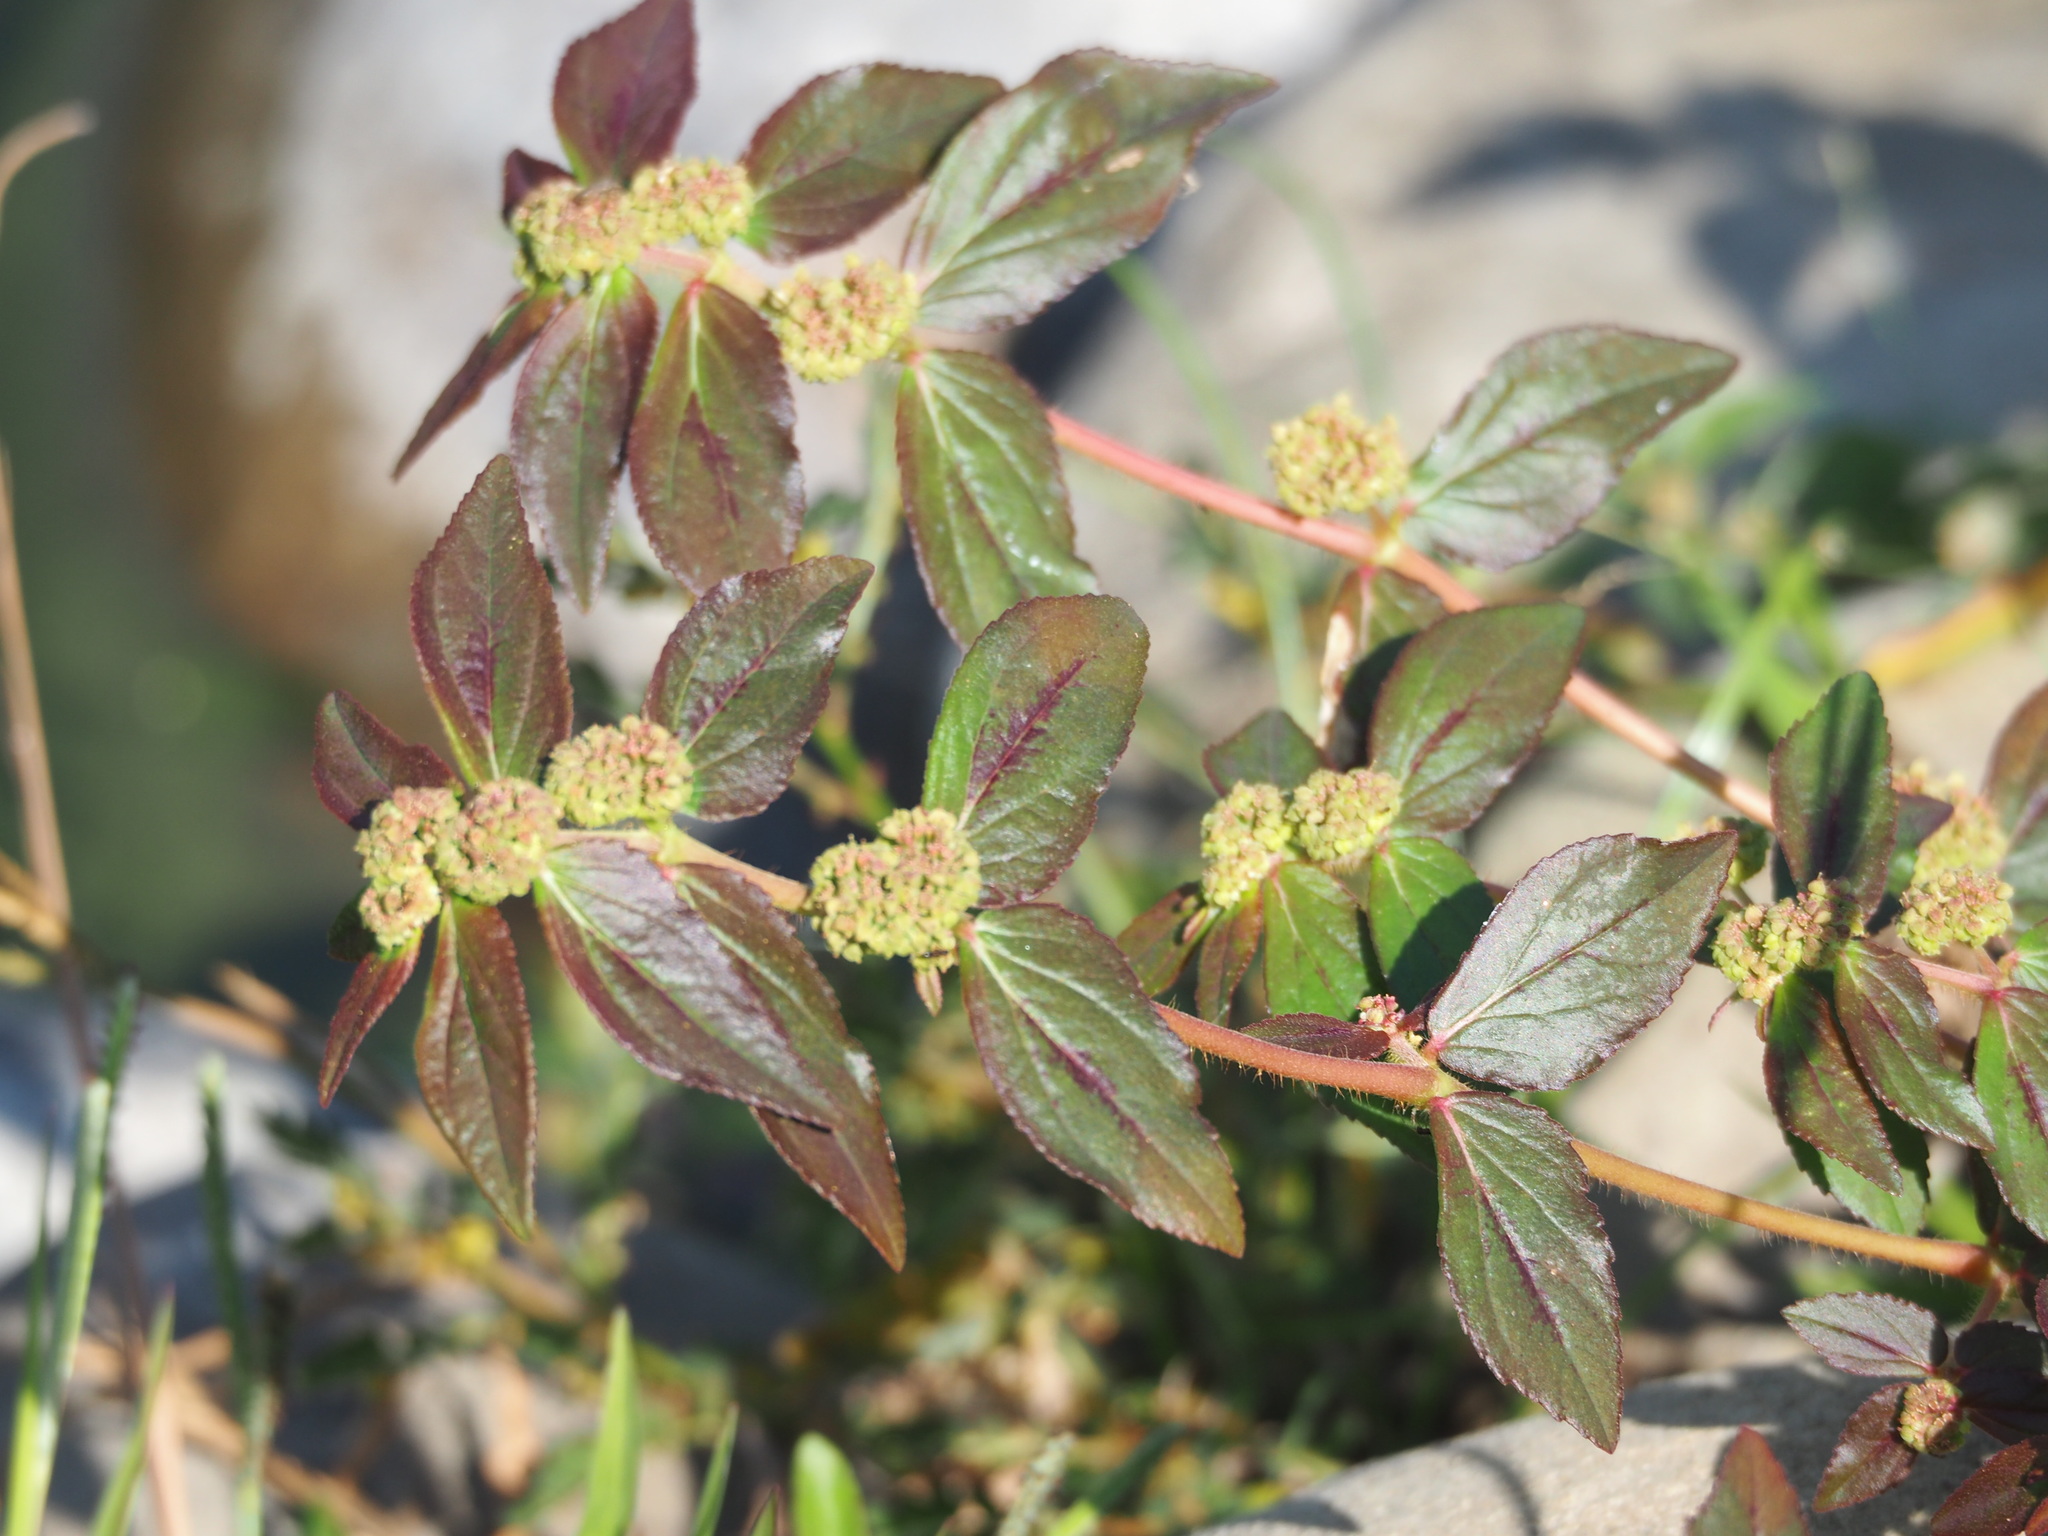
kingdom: Plantae
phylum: Tracheophyta
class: Magnoliopsida
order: Malpighiales
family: Euphorbiaceae
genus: Euphorbia
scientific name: Euphorbia hirta
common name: Pillpod sandmat
